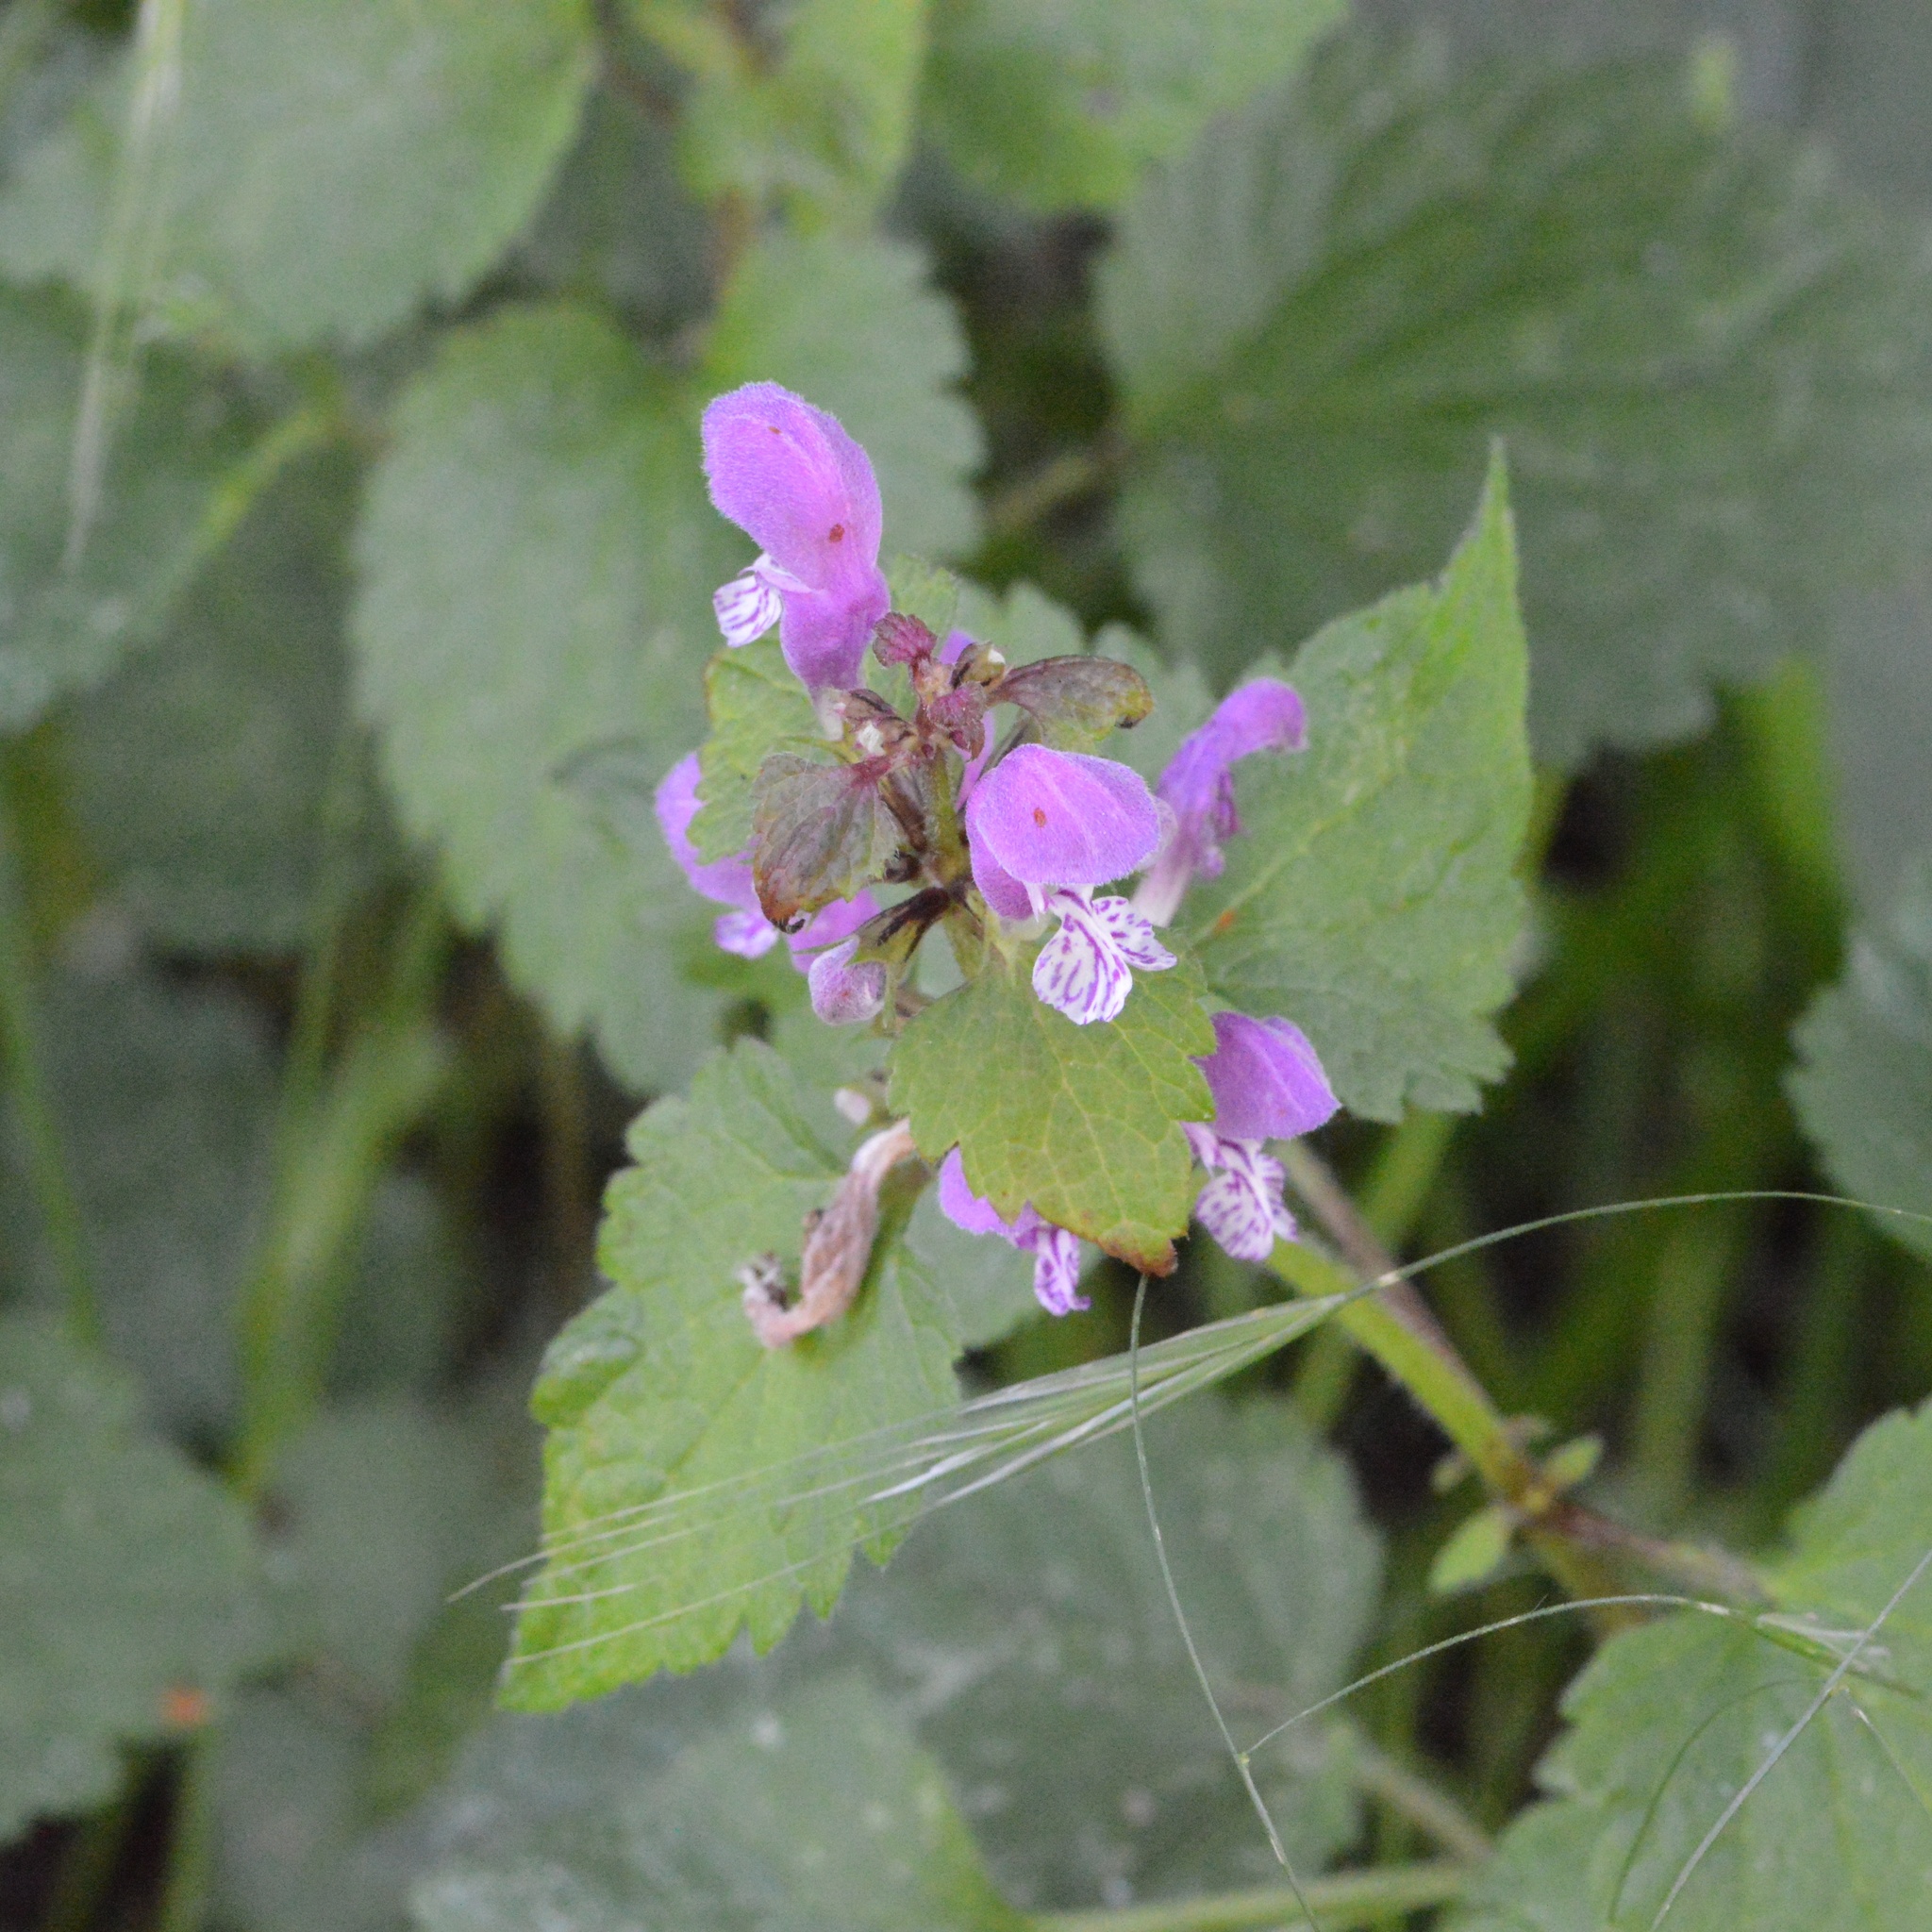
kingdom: Plantae
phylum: Tracheophyta
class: Magnoliopsida
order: Lamiales
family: Lamiaceae
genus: Lamium
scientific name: Lamium maculatum
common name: Spotted dead-nettle
